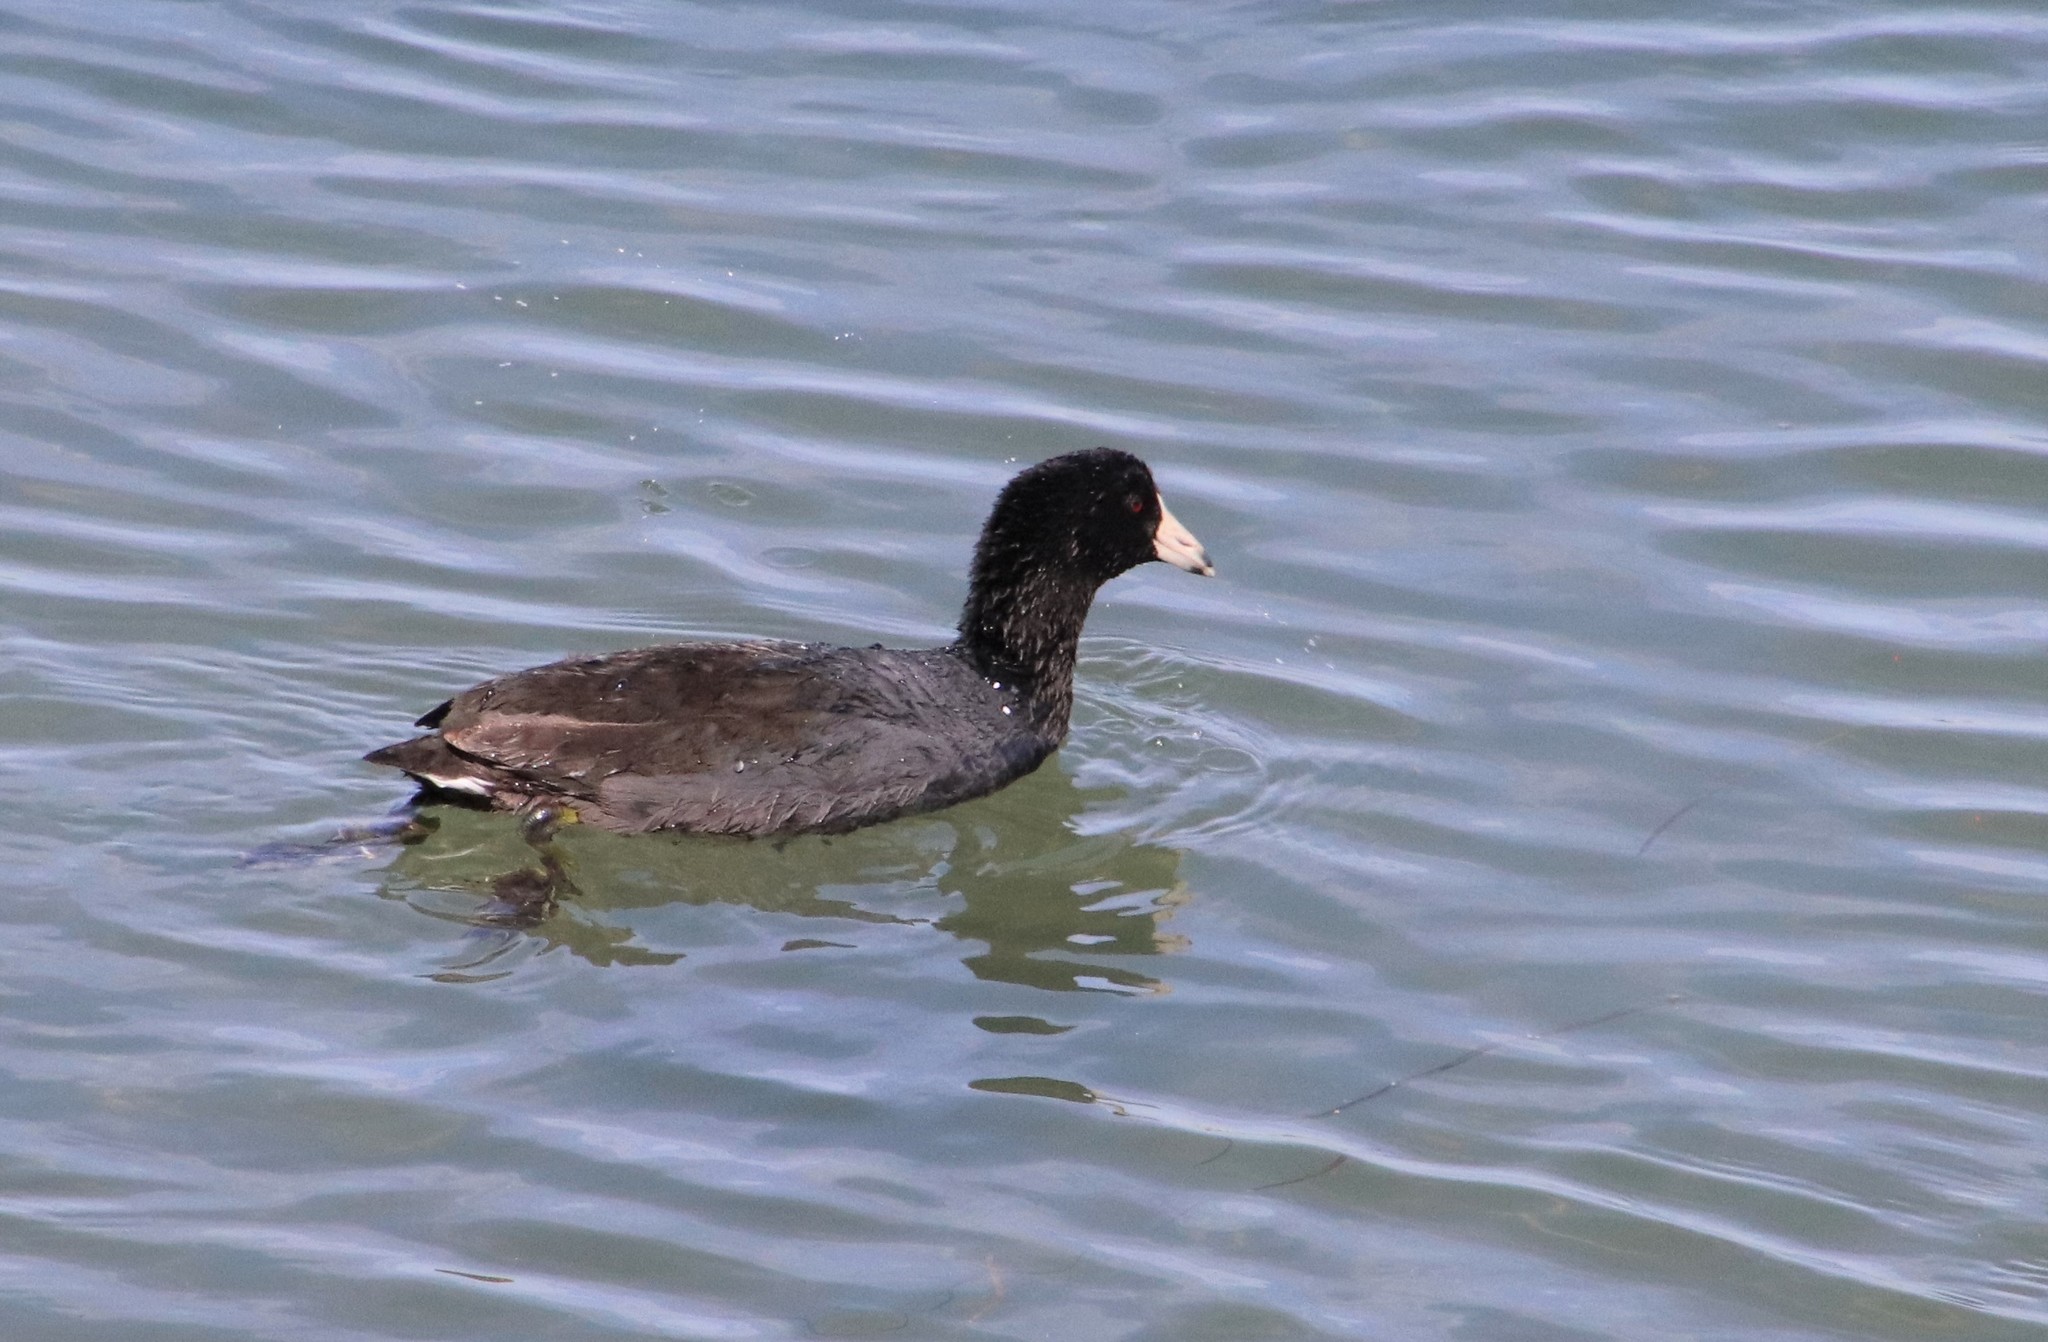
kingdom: Animalia
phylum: Chordata
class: Aves
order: Gruiformes
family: Rallidae
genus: Fulica
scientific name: Fulica americana
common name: American coot
